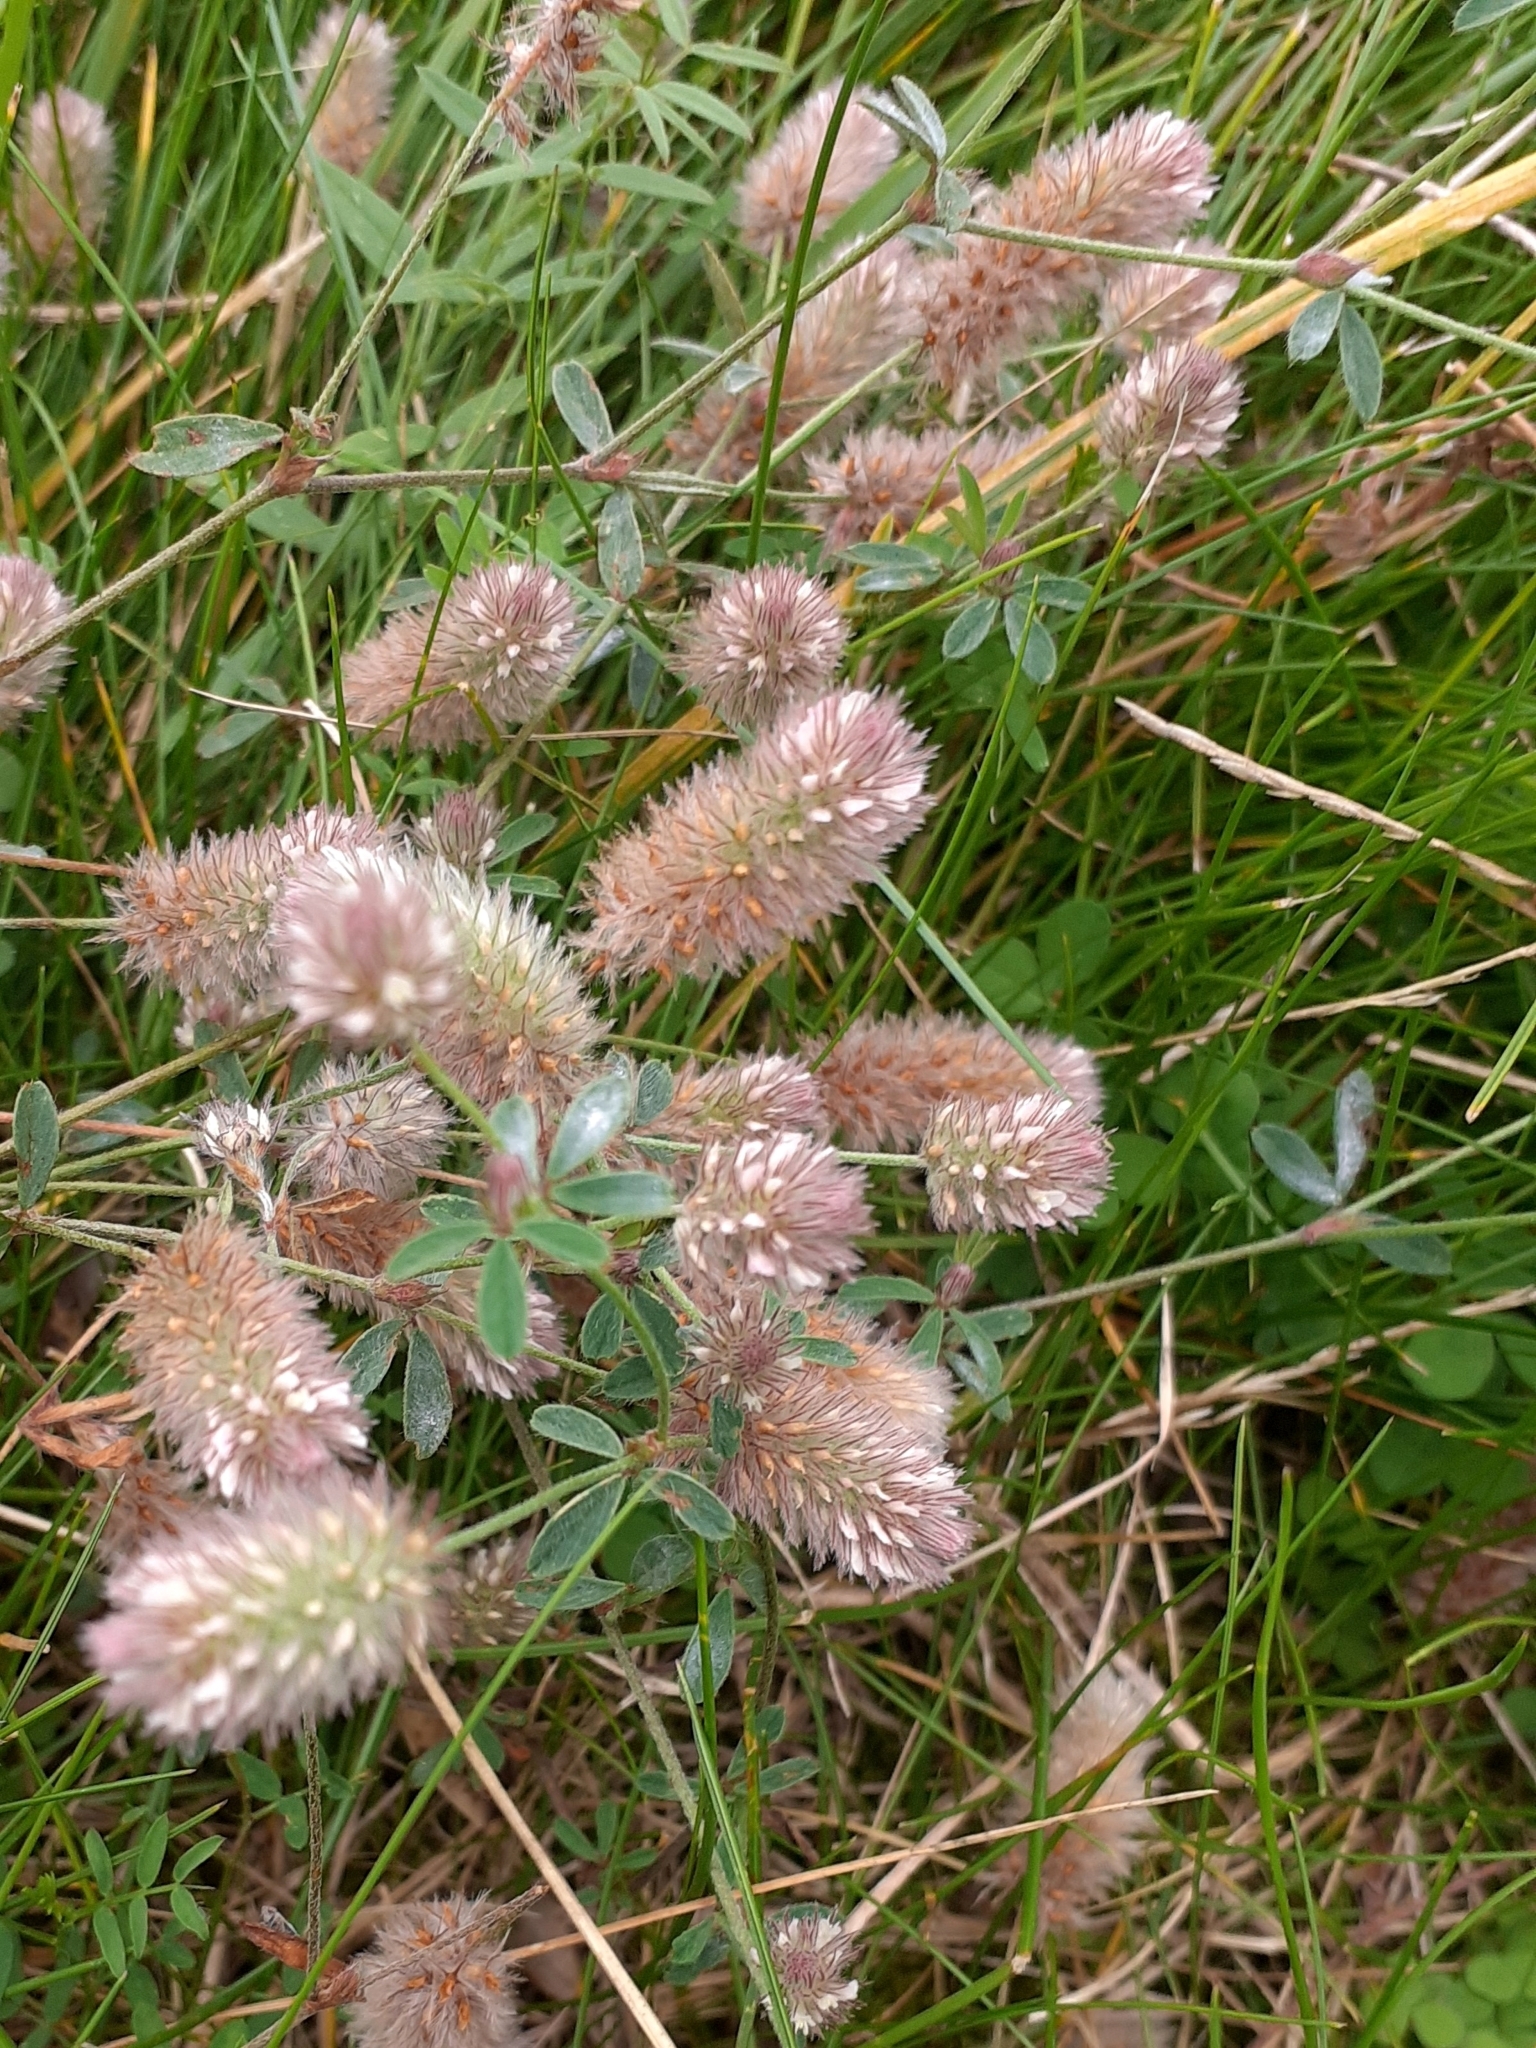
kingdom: Plantae
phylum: Tracheophyta
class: Magnoliopsida
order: Fabales
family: Fabaceae
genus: Trifolium
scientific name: Trifolium arvense
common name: Hare's-foot clover
